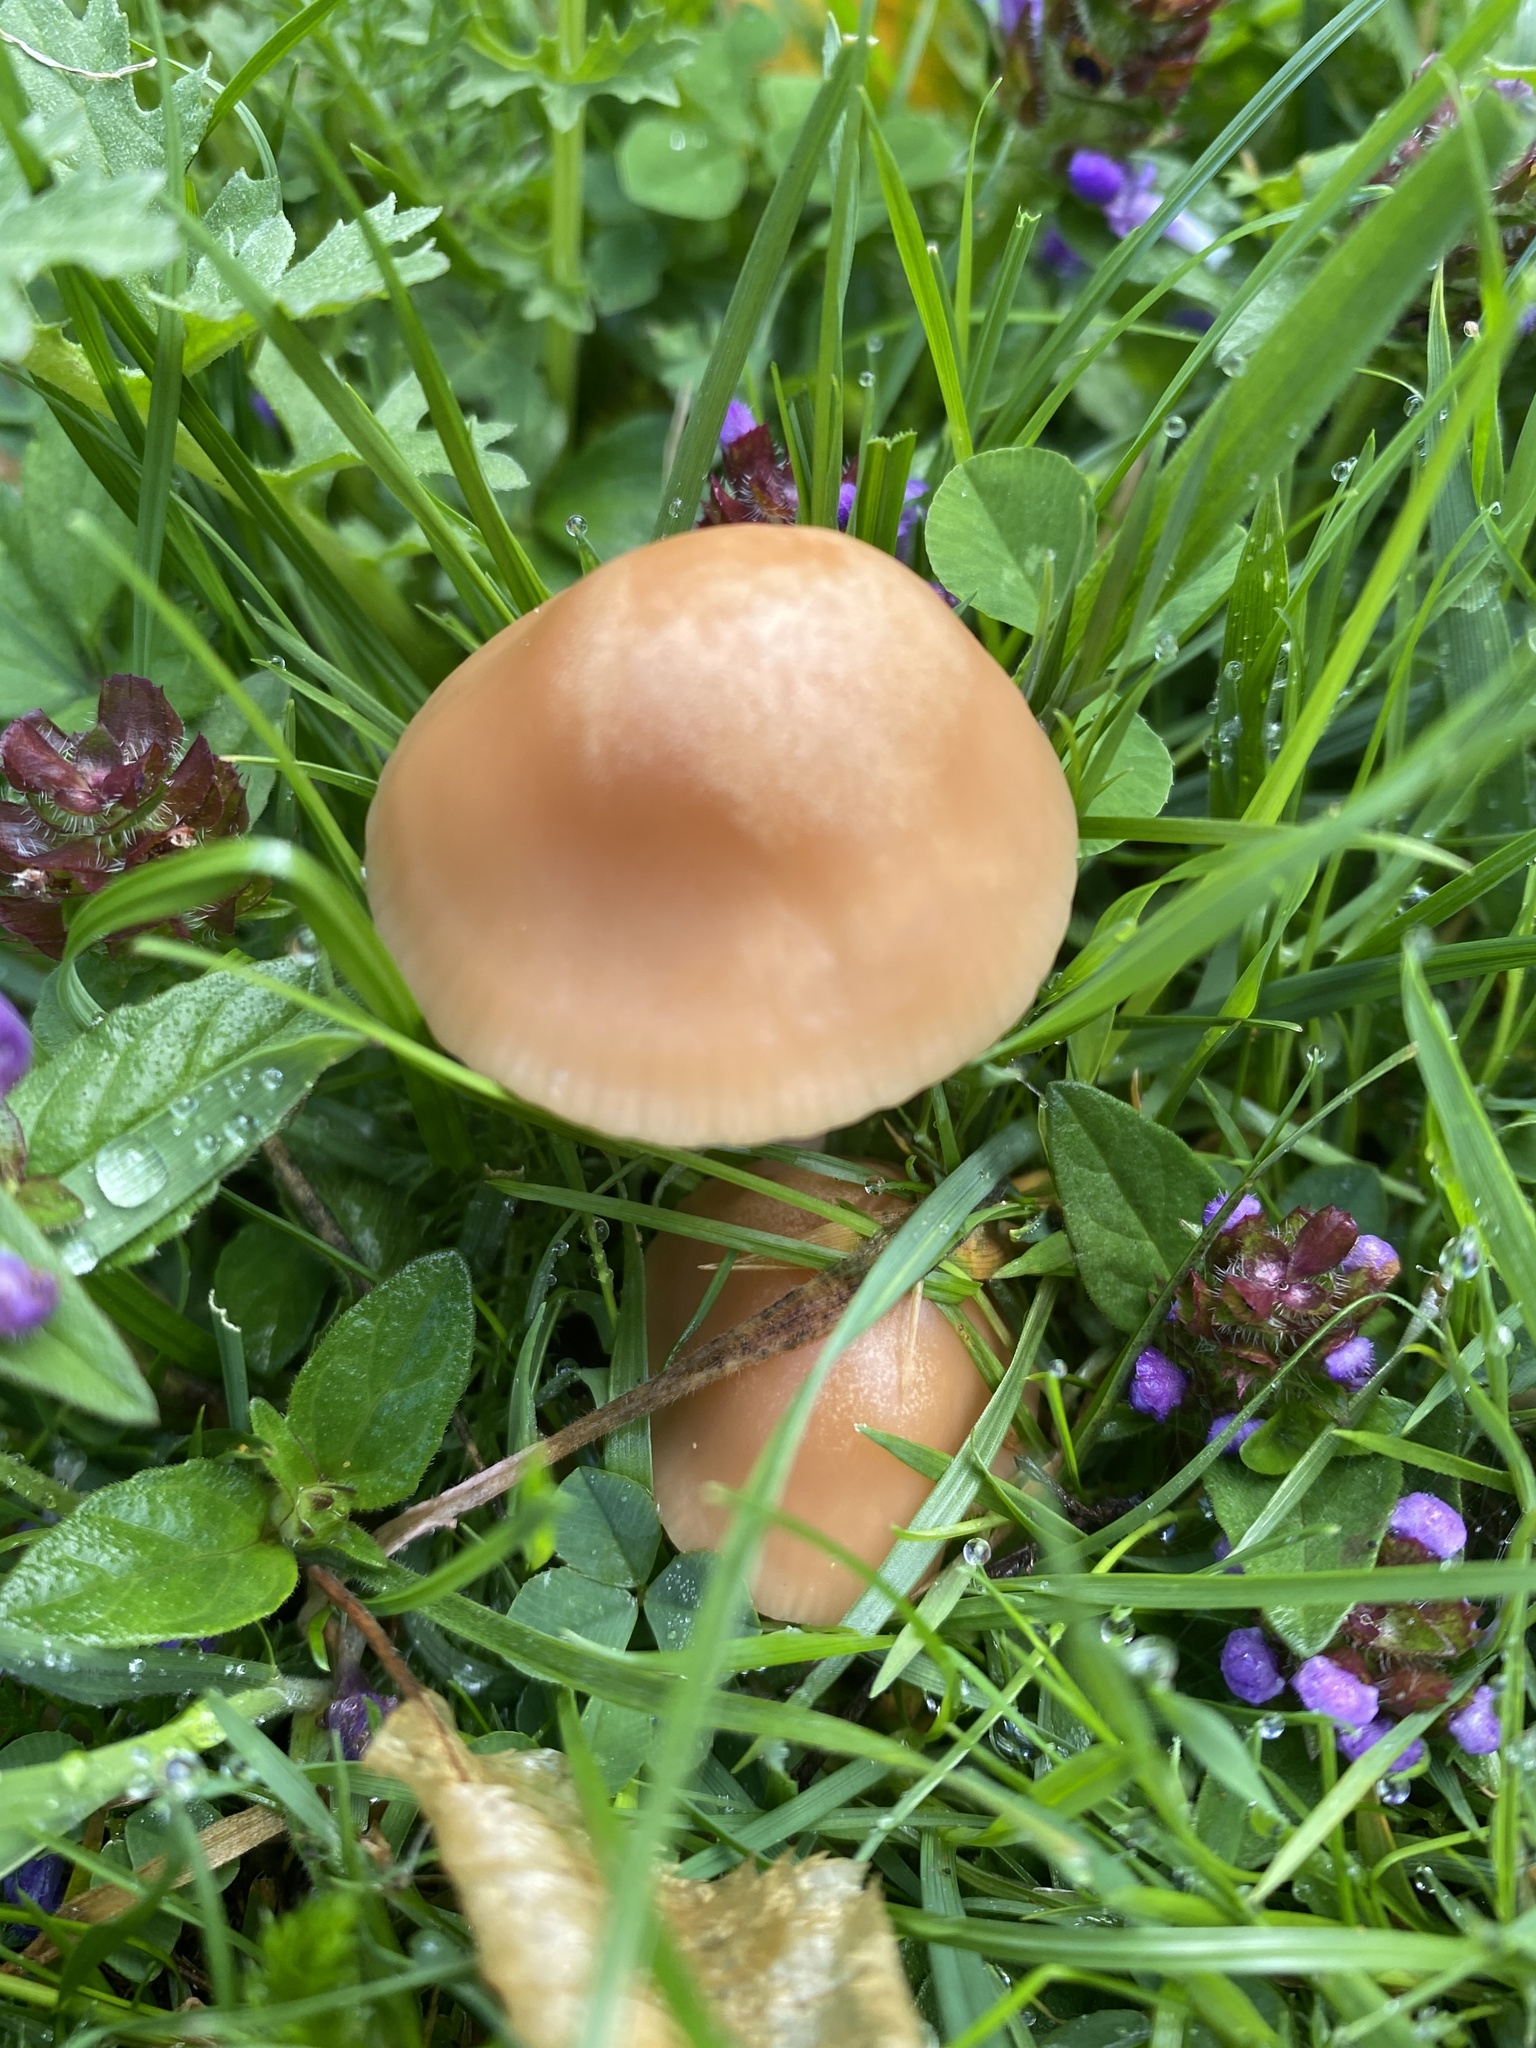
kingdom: Fungi
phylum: Basidiomycota
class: Agaricomycetes
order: Agaricales
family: Marasmiaceae
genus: Marasmius
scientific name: Marasmius oreades
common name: Fairy ring champignon
